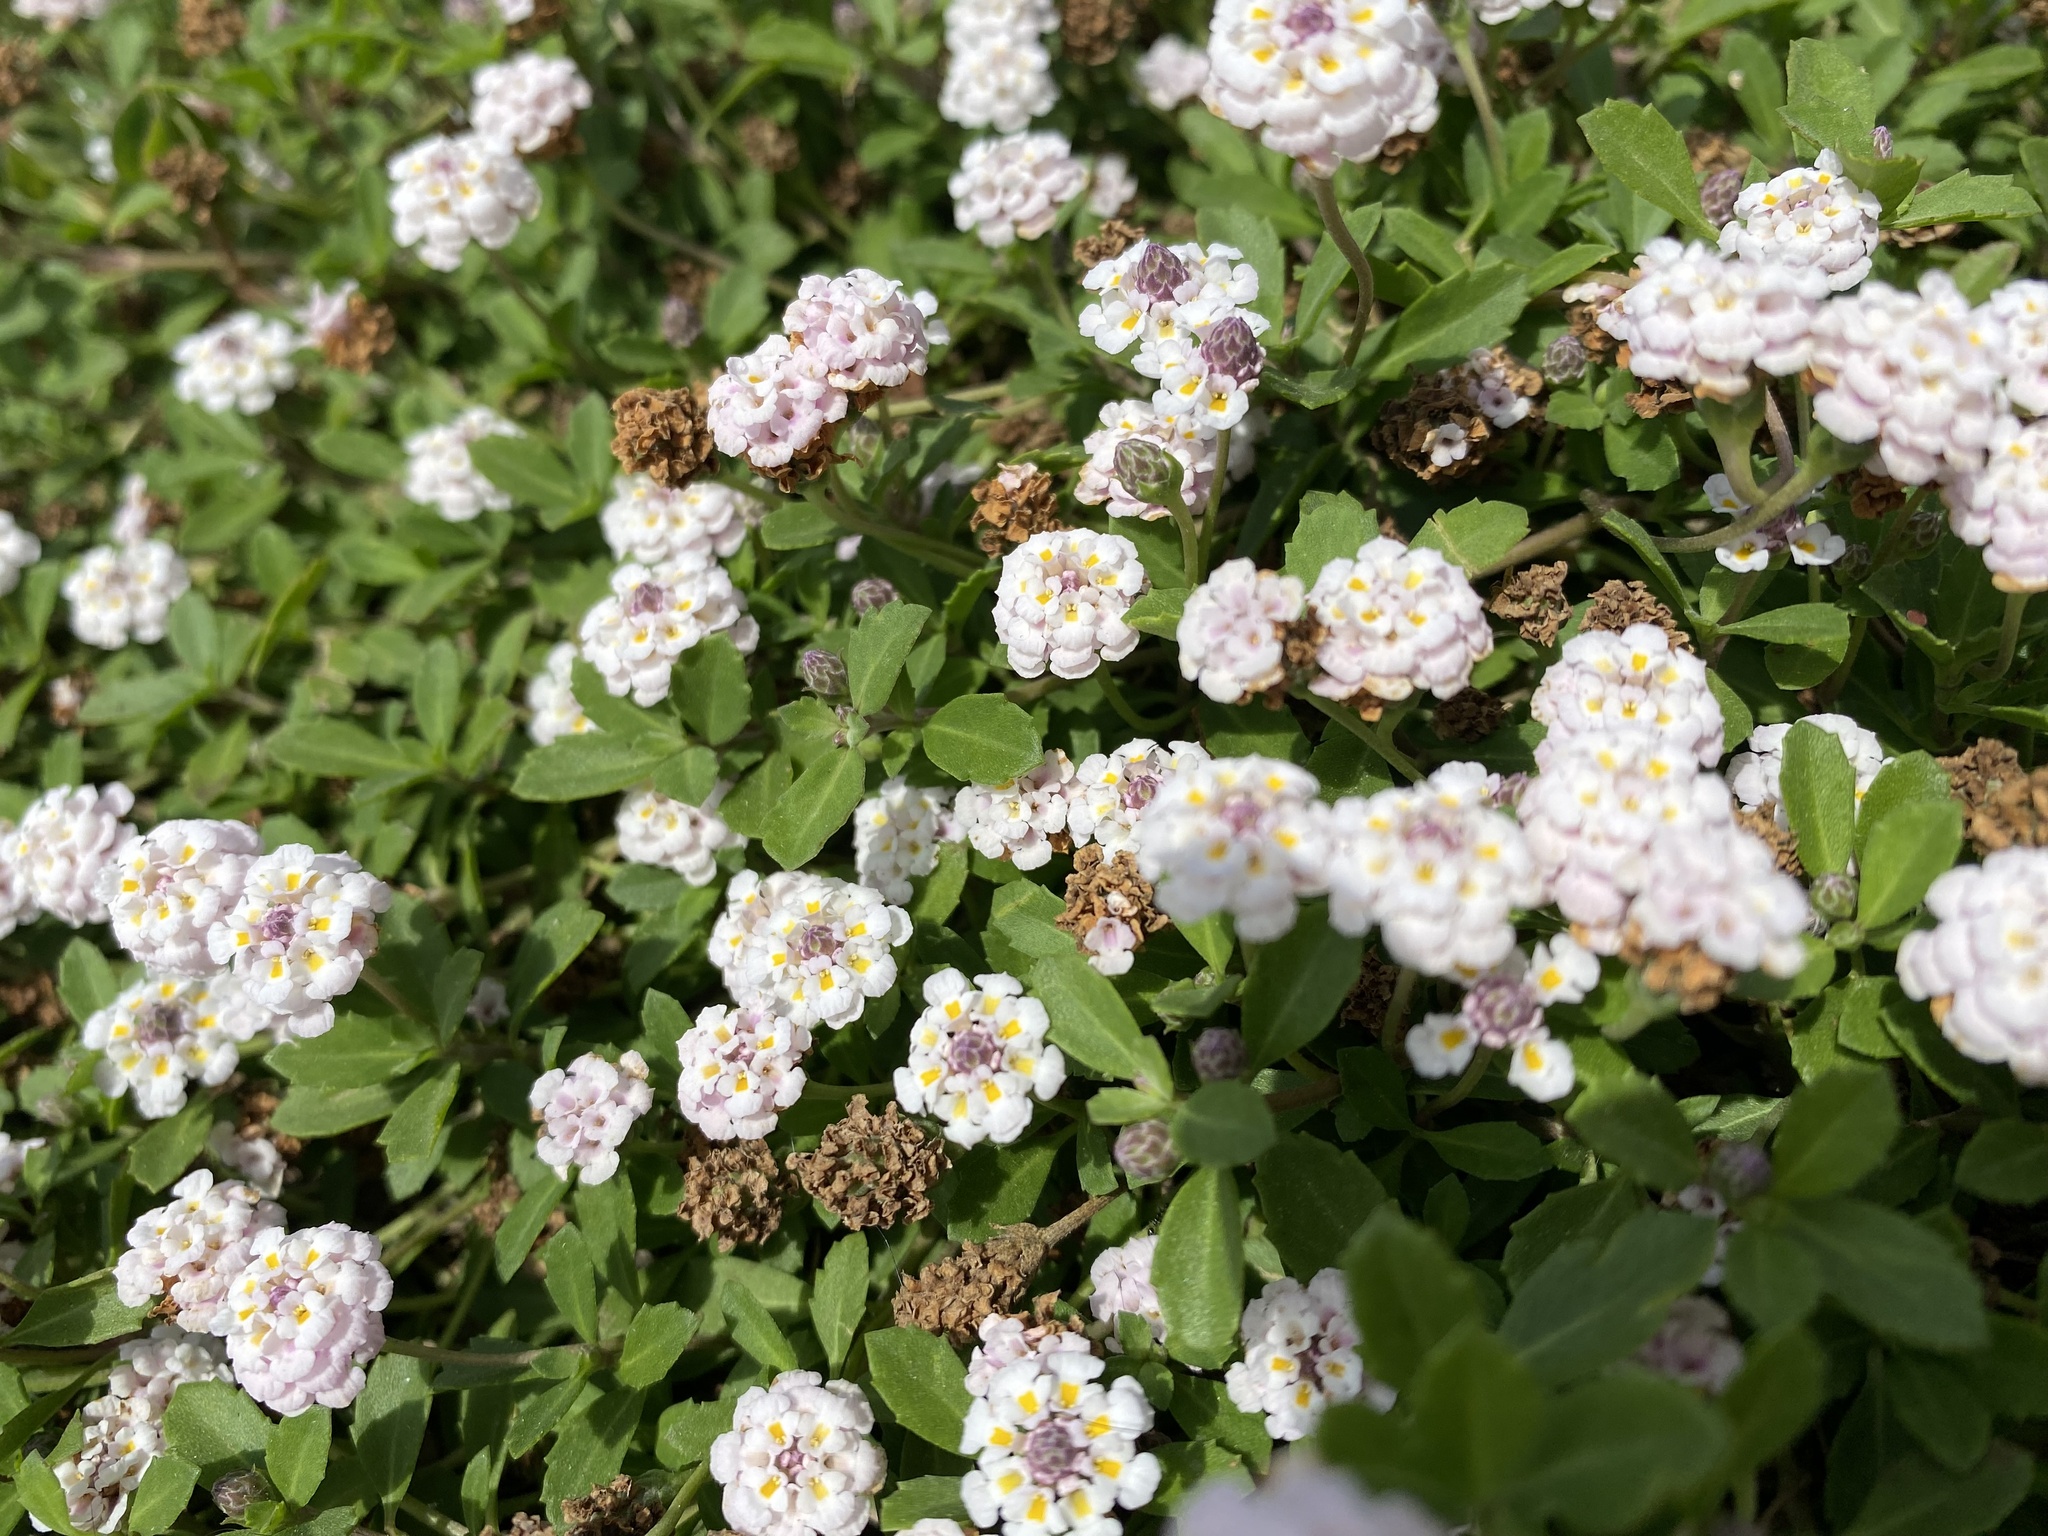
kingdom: Plantae
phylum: Tracheophyta
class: Magnoliopsida
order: Lamiales
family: Verbenaceae
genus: Phyla
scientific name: Phyla nodiflora
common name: Frogfruit
